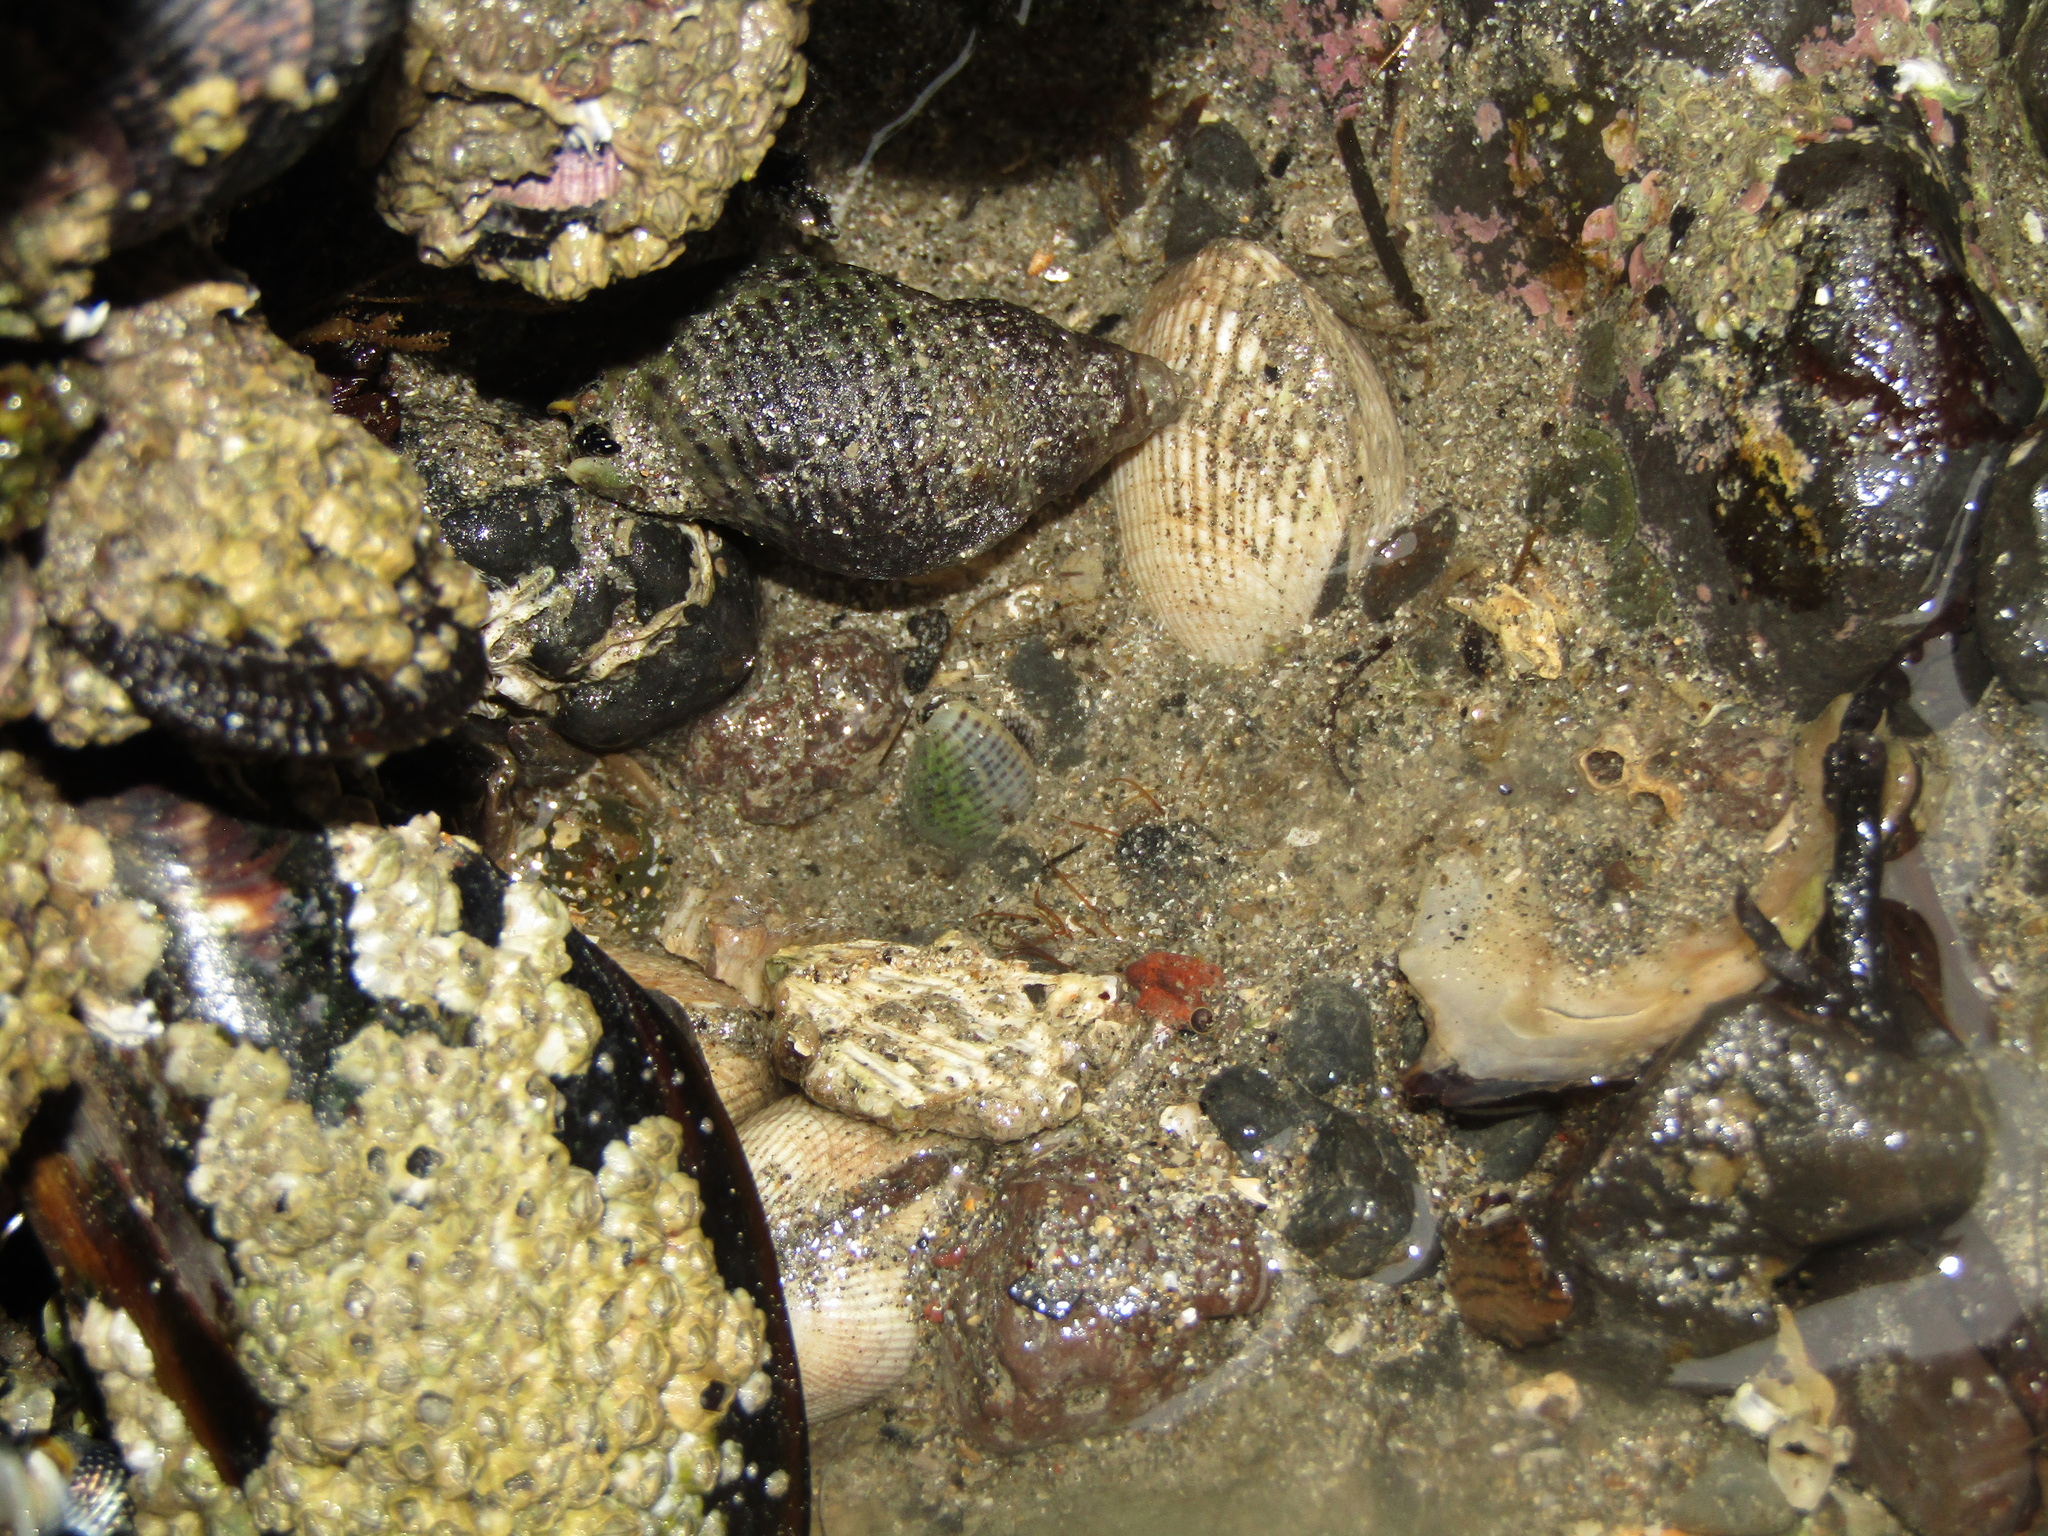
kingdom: Animalia
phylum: Mollusca
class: Gastropoda
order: Neogastropoda
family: Cominellidae
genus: Cominella
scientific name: Cominella maculosa
